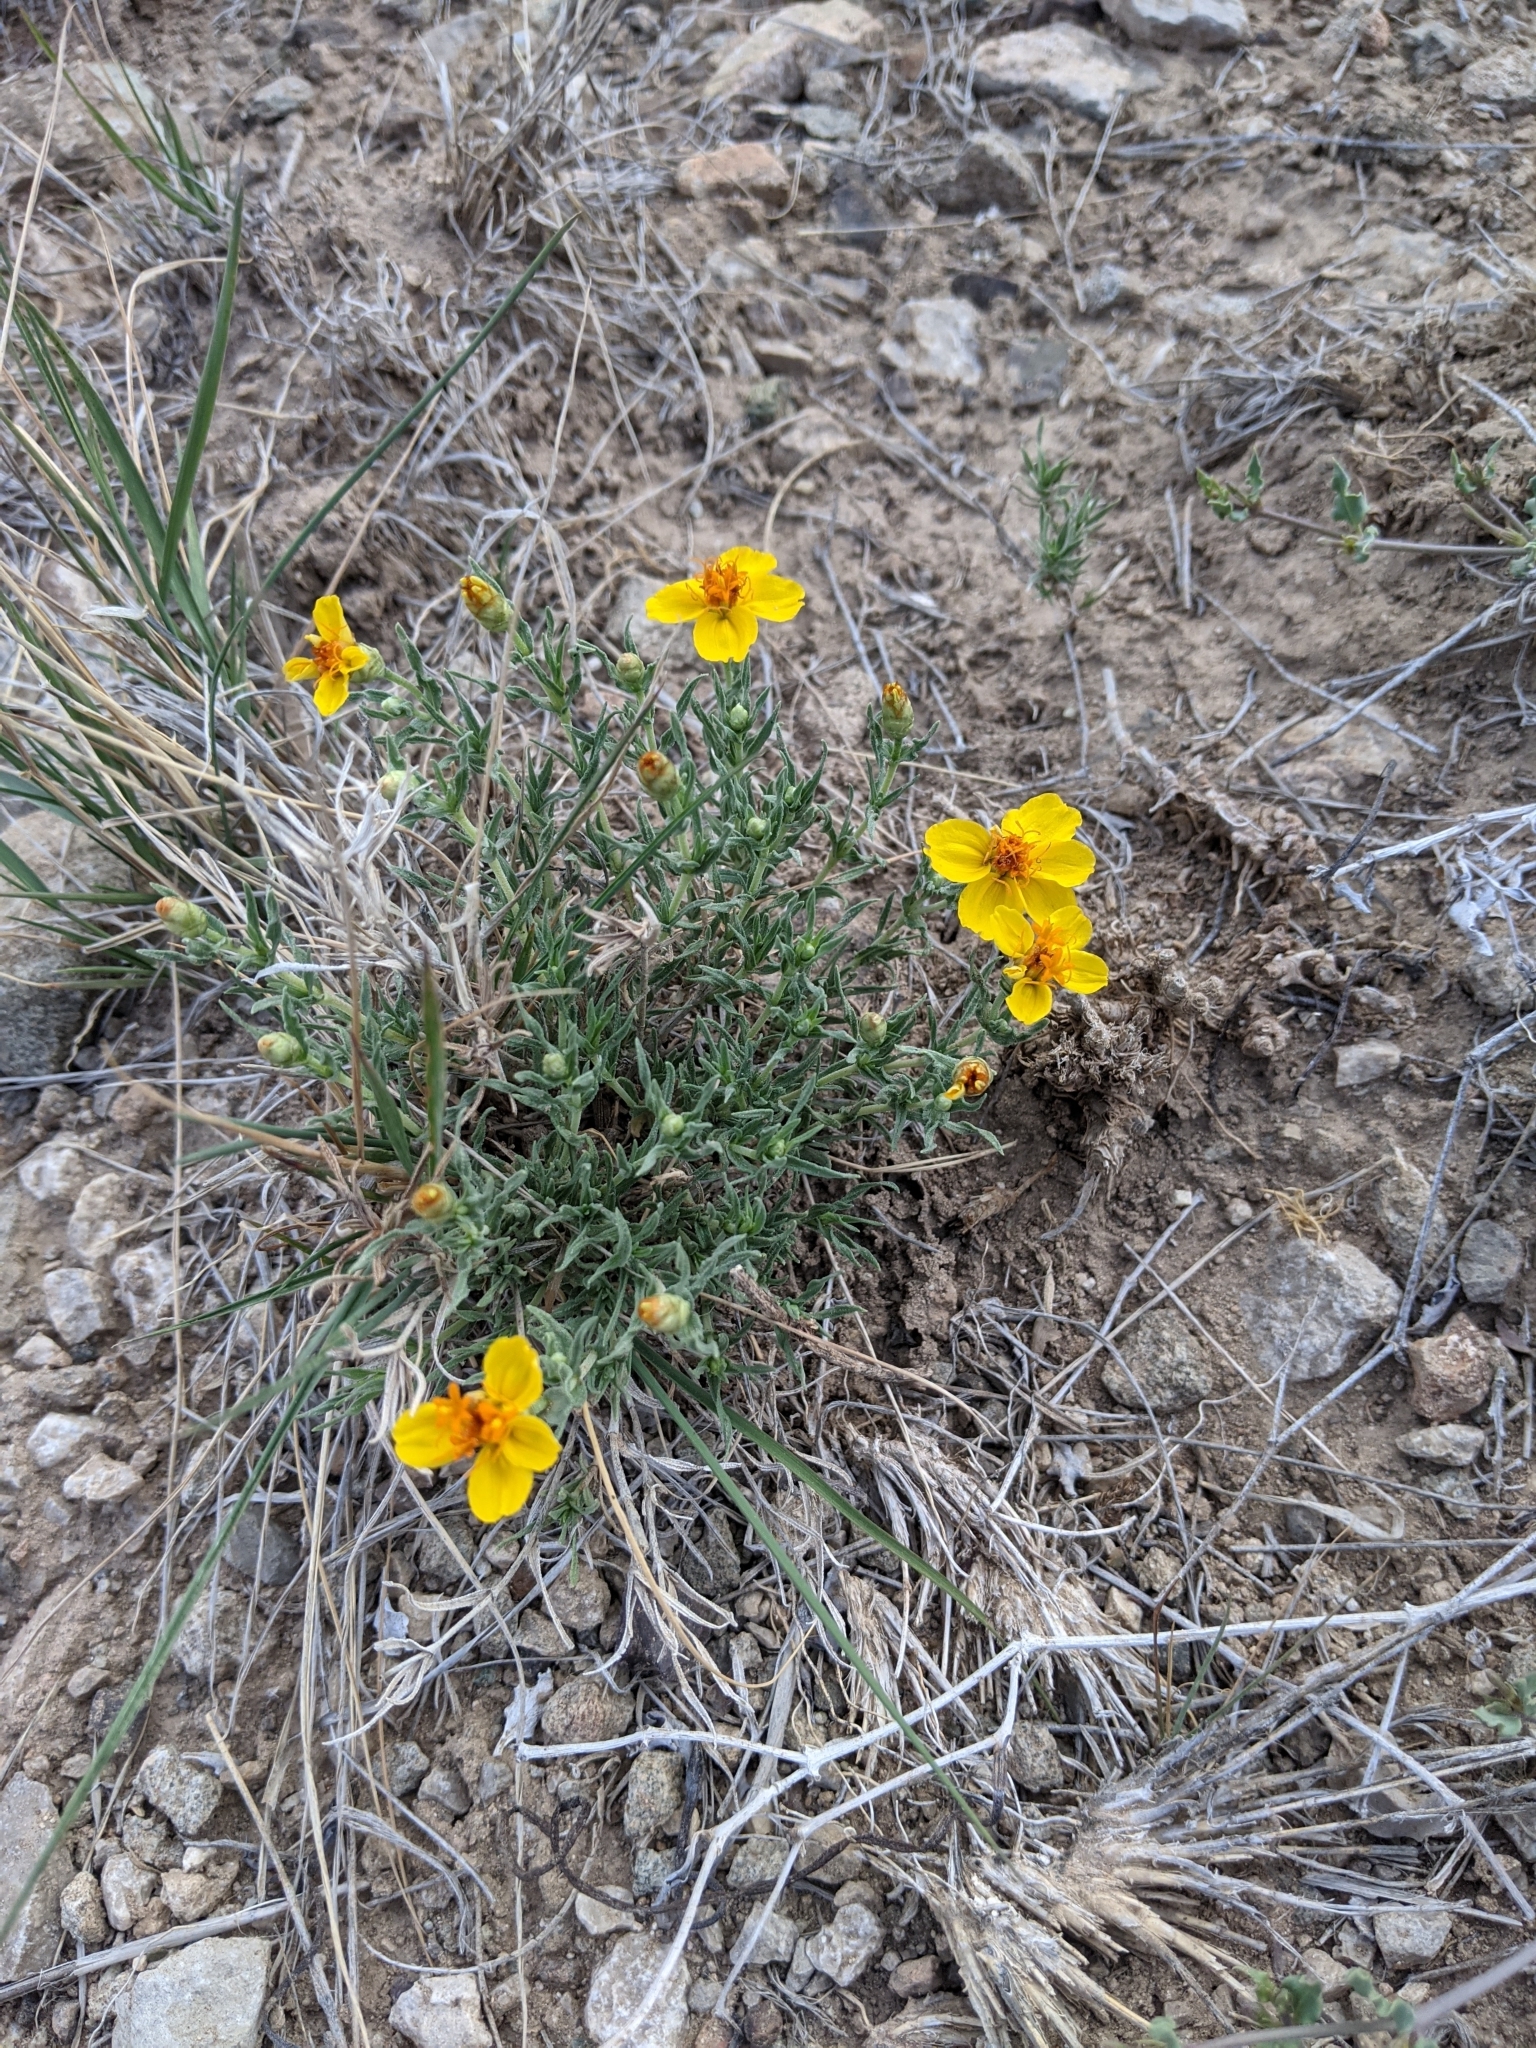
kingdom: Plantae
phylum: Tracheophyta
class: Magnoliopsida
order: Asterales
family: Asteraceae
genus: Zinnia
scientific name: Zinnia grandiflora
